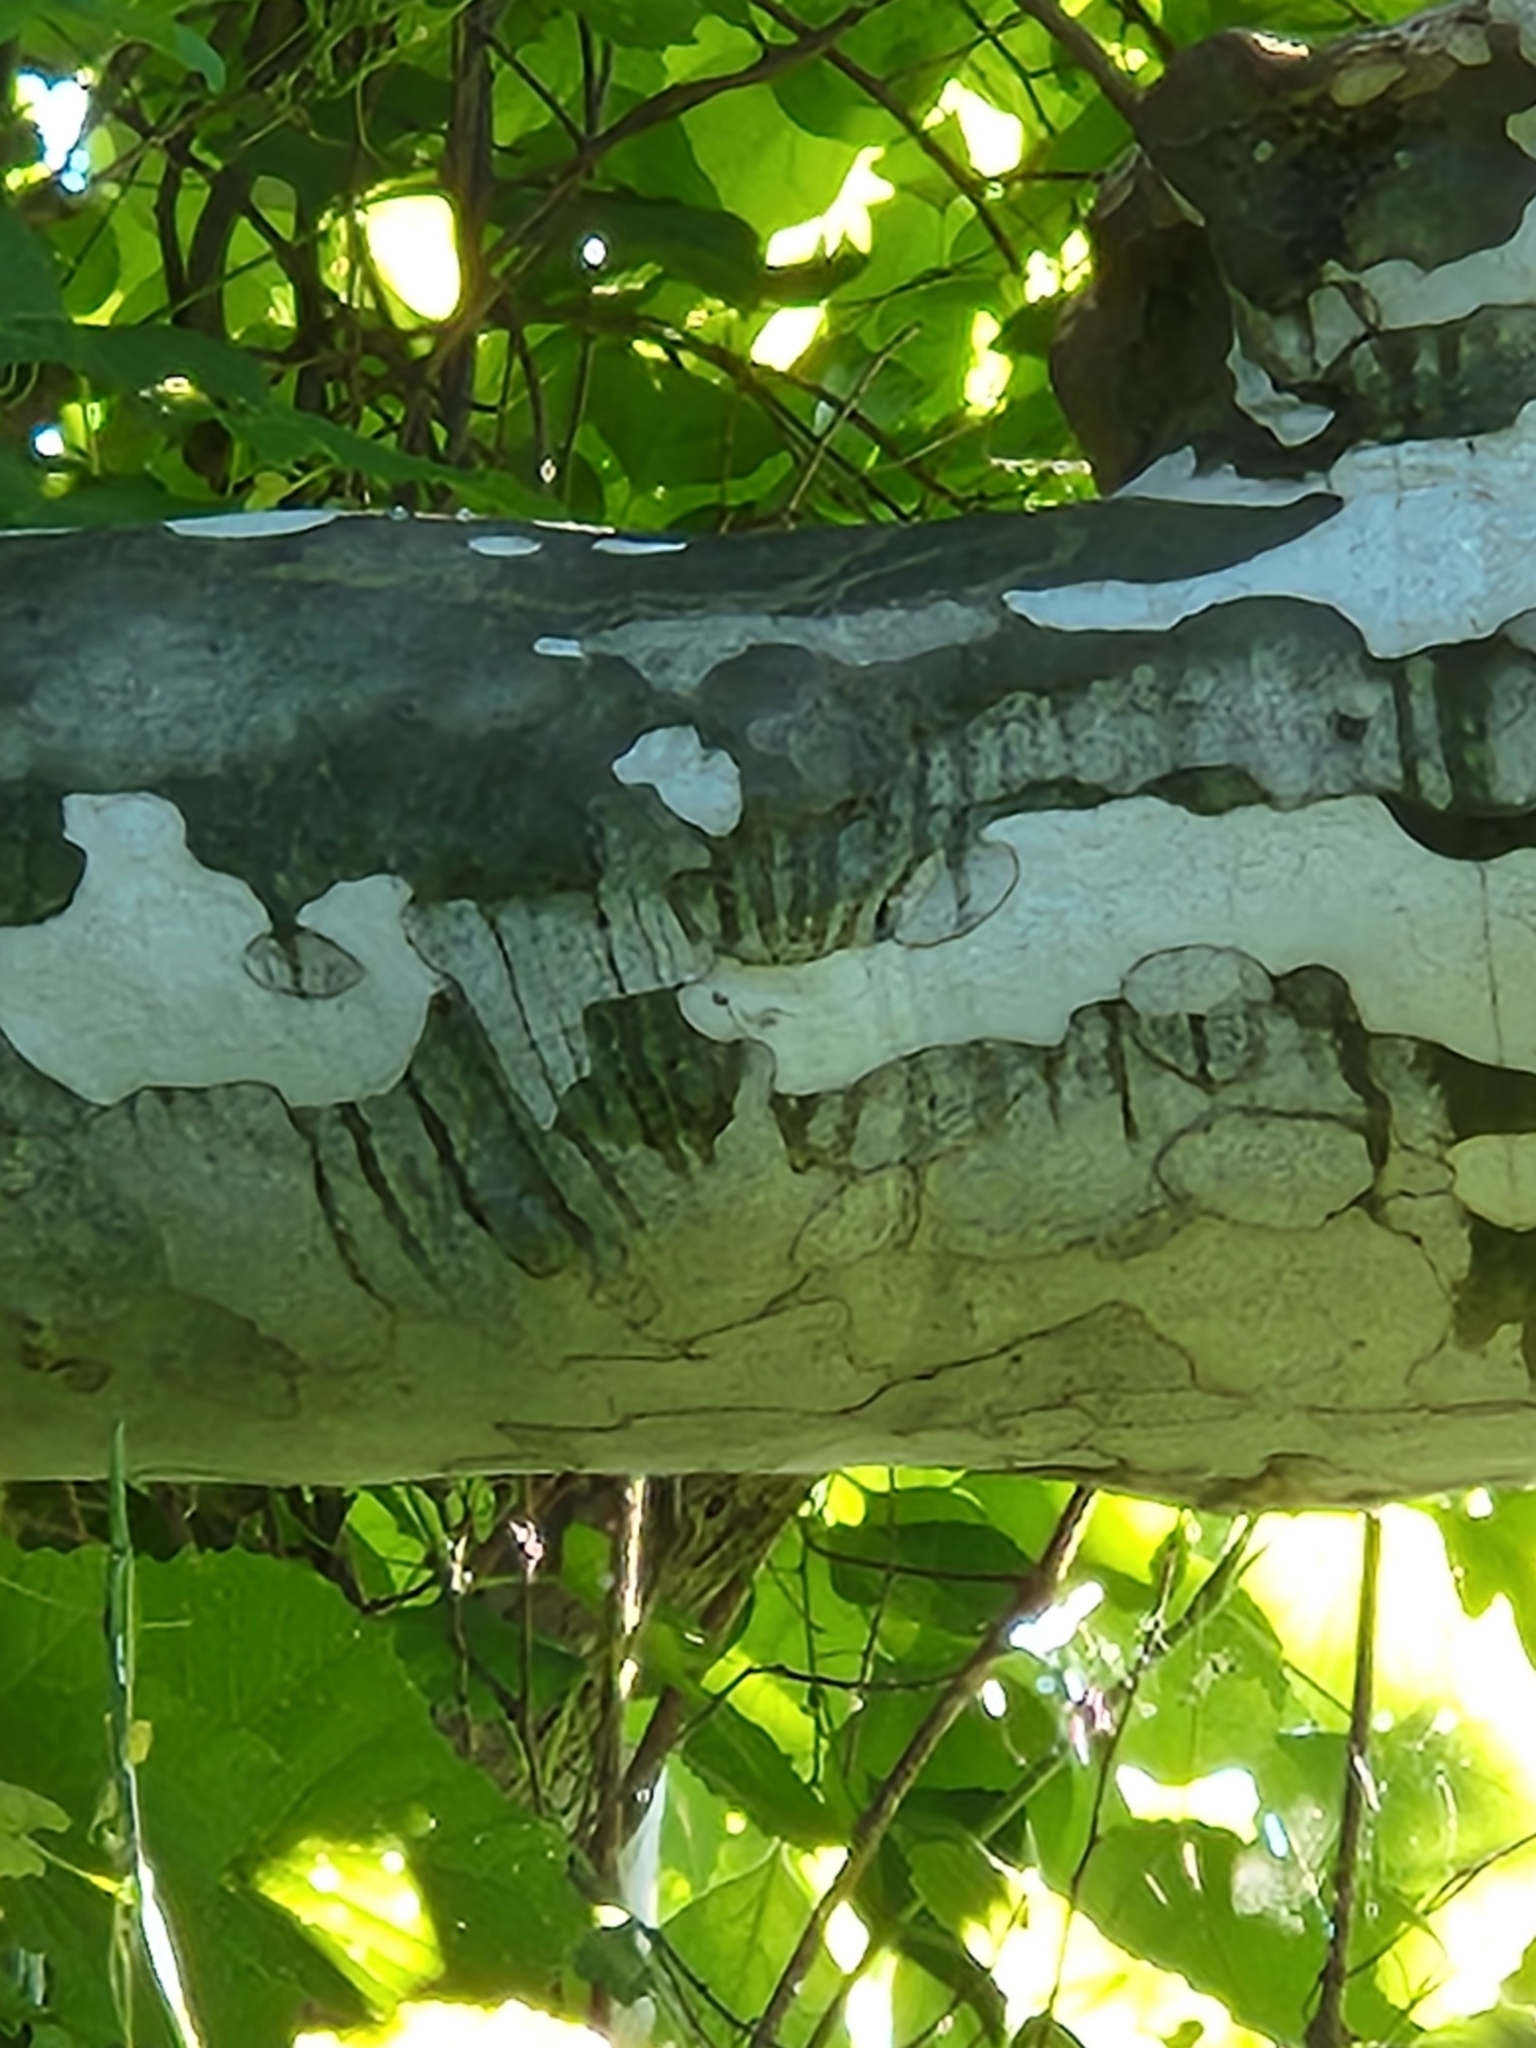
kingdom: Plantae
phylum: Tracheophyta
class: Magnoliopsida
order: Proteales
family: Platanaceae
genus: Platanus
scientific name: Platanus occidentalis
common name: American sycamore
